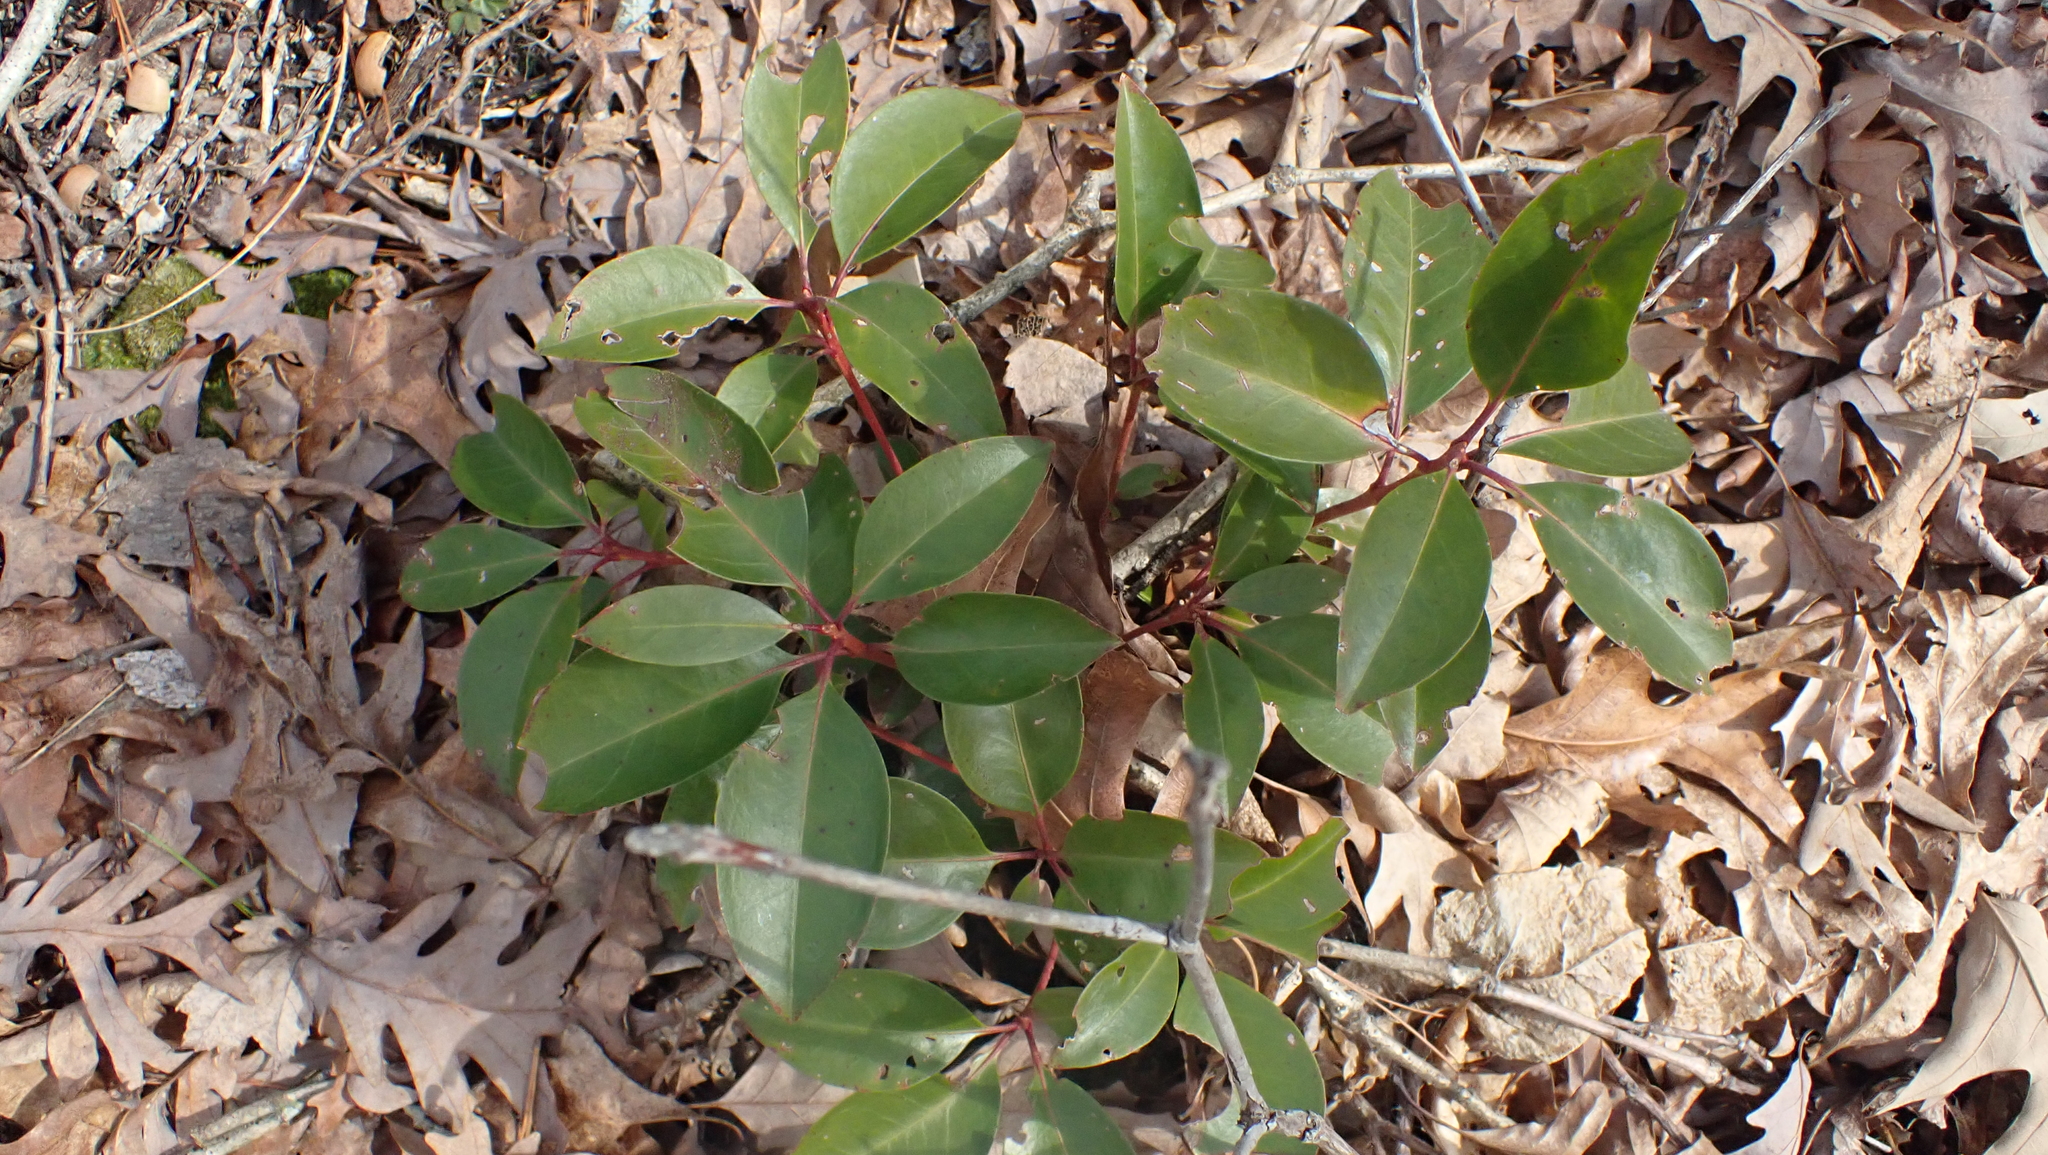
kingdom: Plantae
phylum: Tracheophyta
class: Magnoliopsida
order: Ericales
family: Ericaceae
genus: Kalmia
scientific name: Kalmia latifolia
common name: Mountain-laurel
